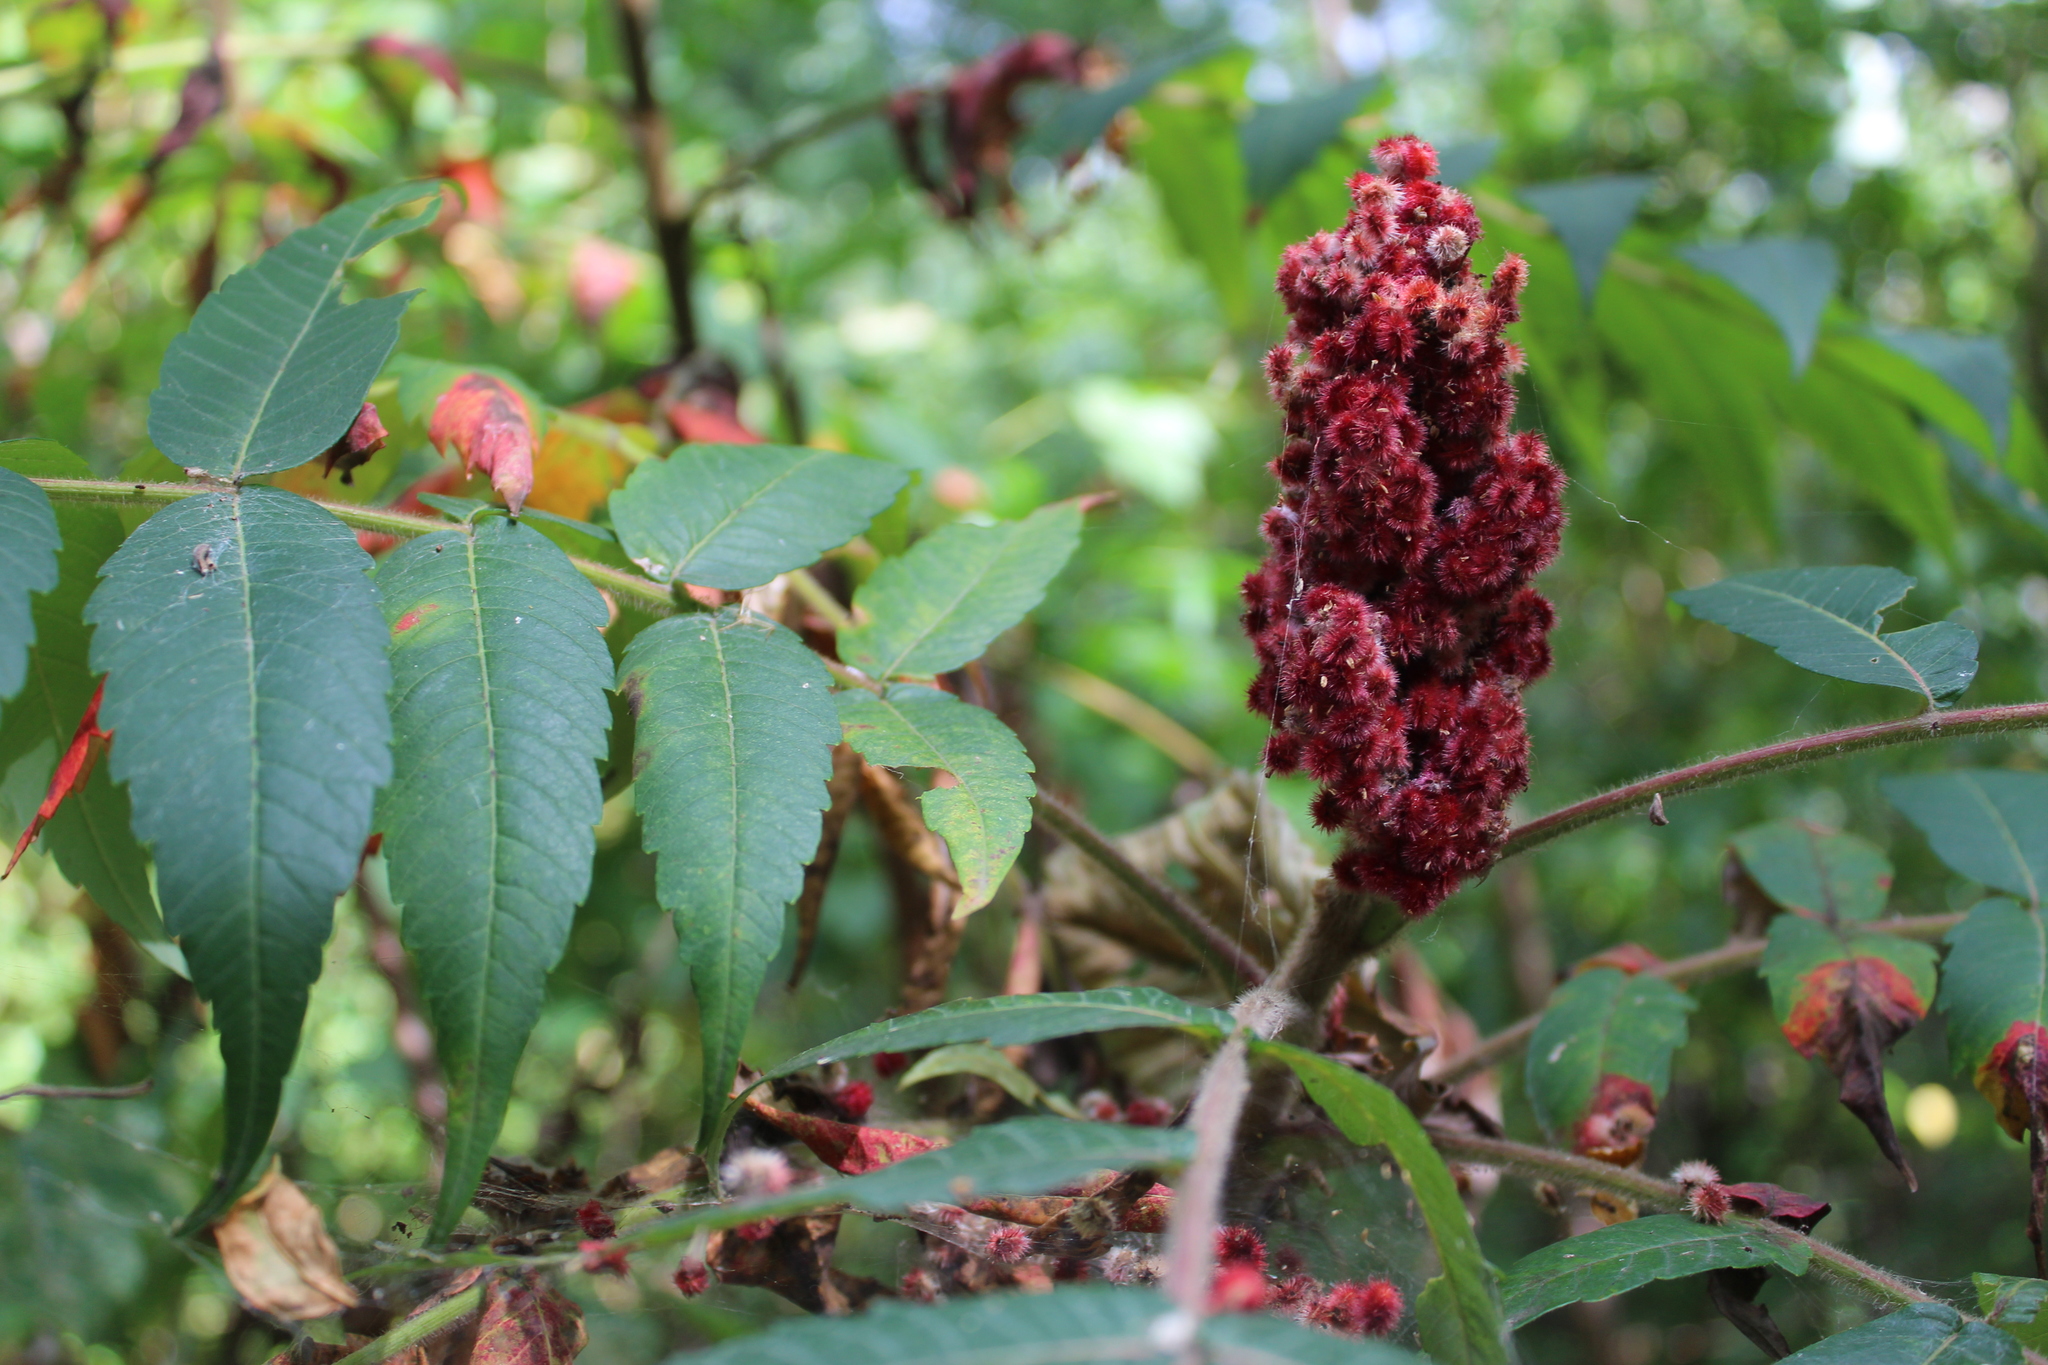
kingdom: Plantae
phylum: Tracheophyta
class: Magnoliopsida
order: Sapindales
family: Anacardiaceae
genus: Rhus
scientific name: Rhus typhina
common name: Staghorn sumac
